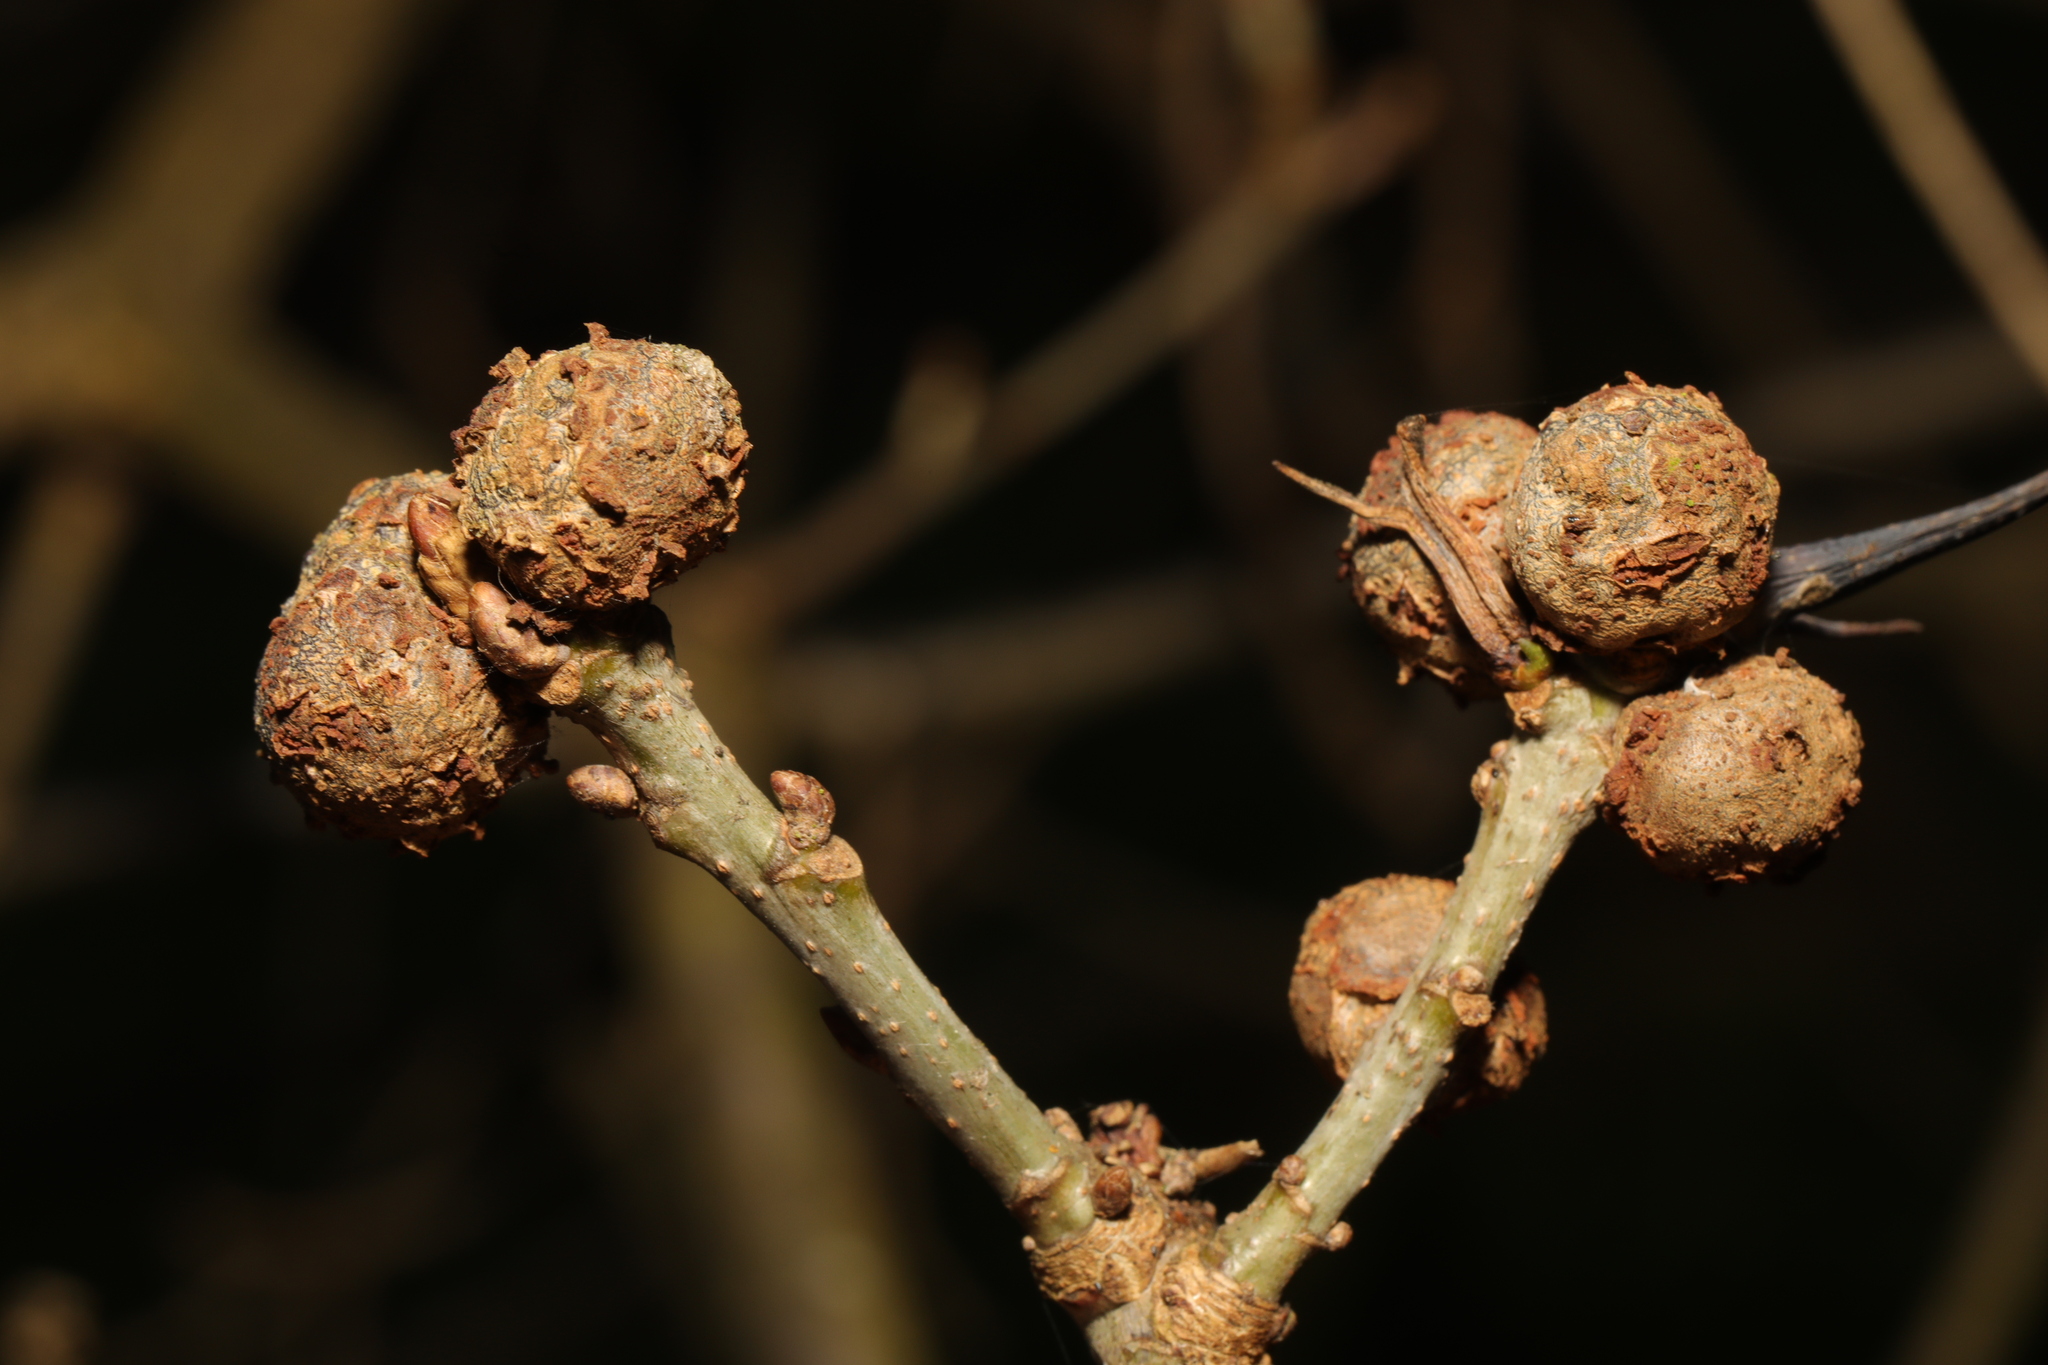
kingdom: Animalia
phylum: Arthropoda
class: Insecta
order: Hymenoptera
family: Cynipidae
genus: Andricus
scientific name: Andricus lignicolus
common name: Cola-nut gall
